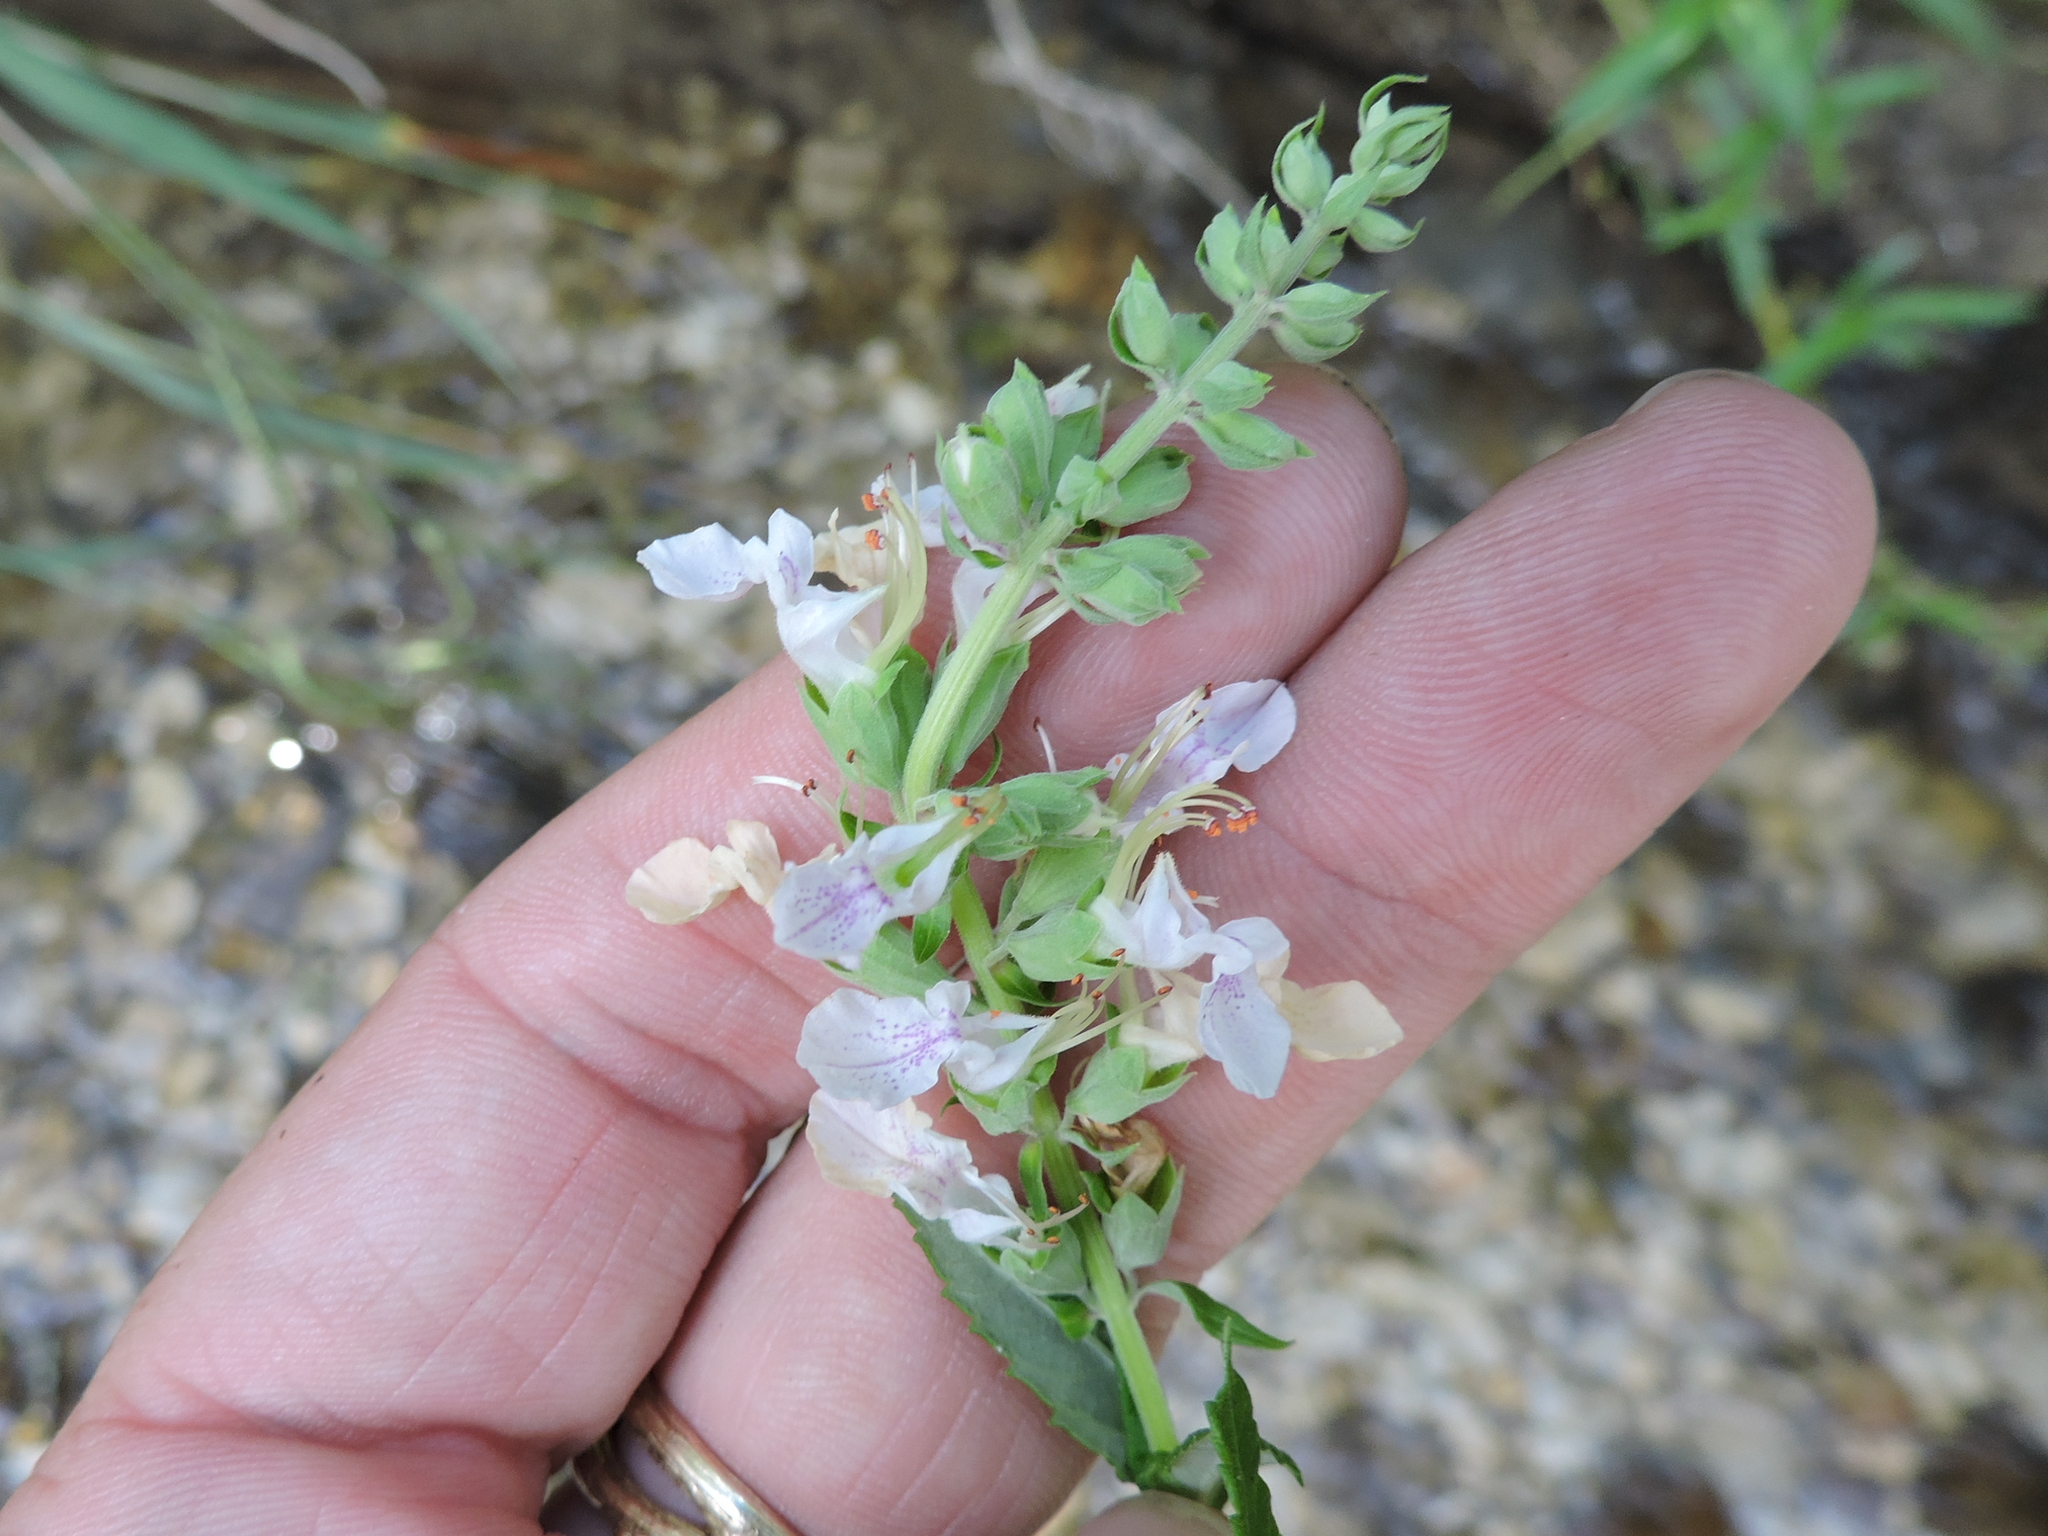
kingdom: Plantae
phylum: Tracheophyta
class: Magnoliopsida
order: Lamiales
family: Lamiaceae
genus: Teucrium
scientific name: Teucrium canadense
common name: American germander
